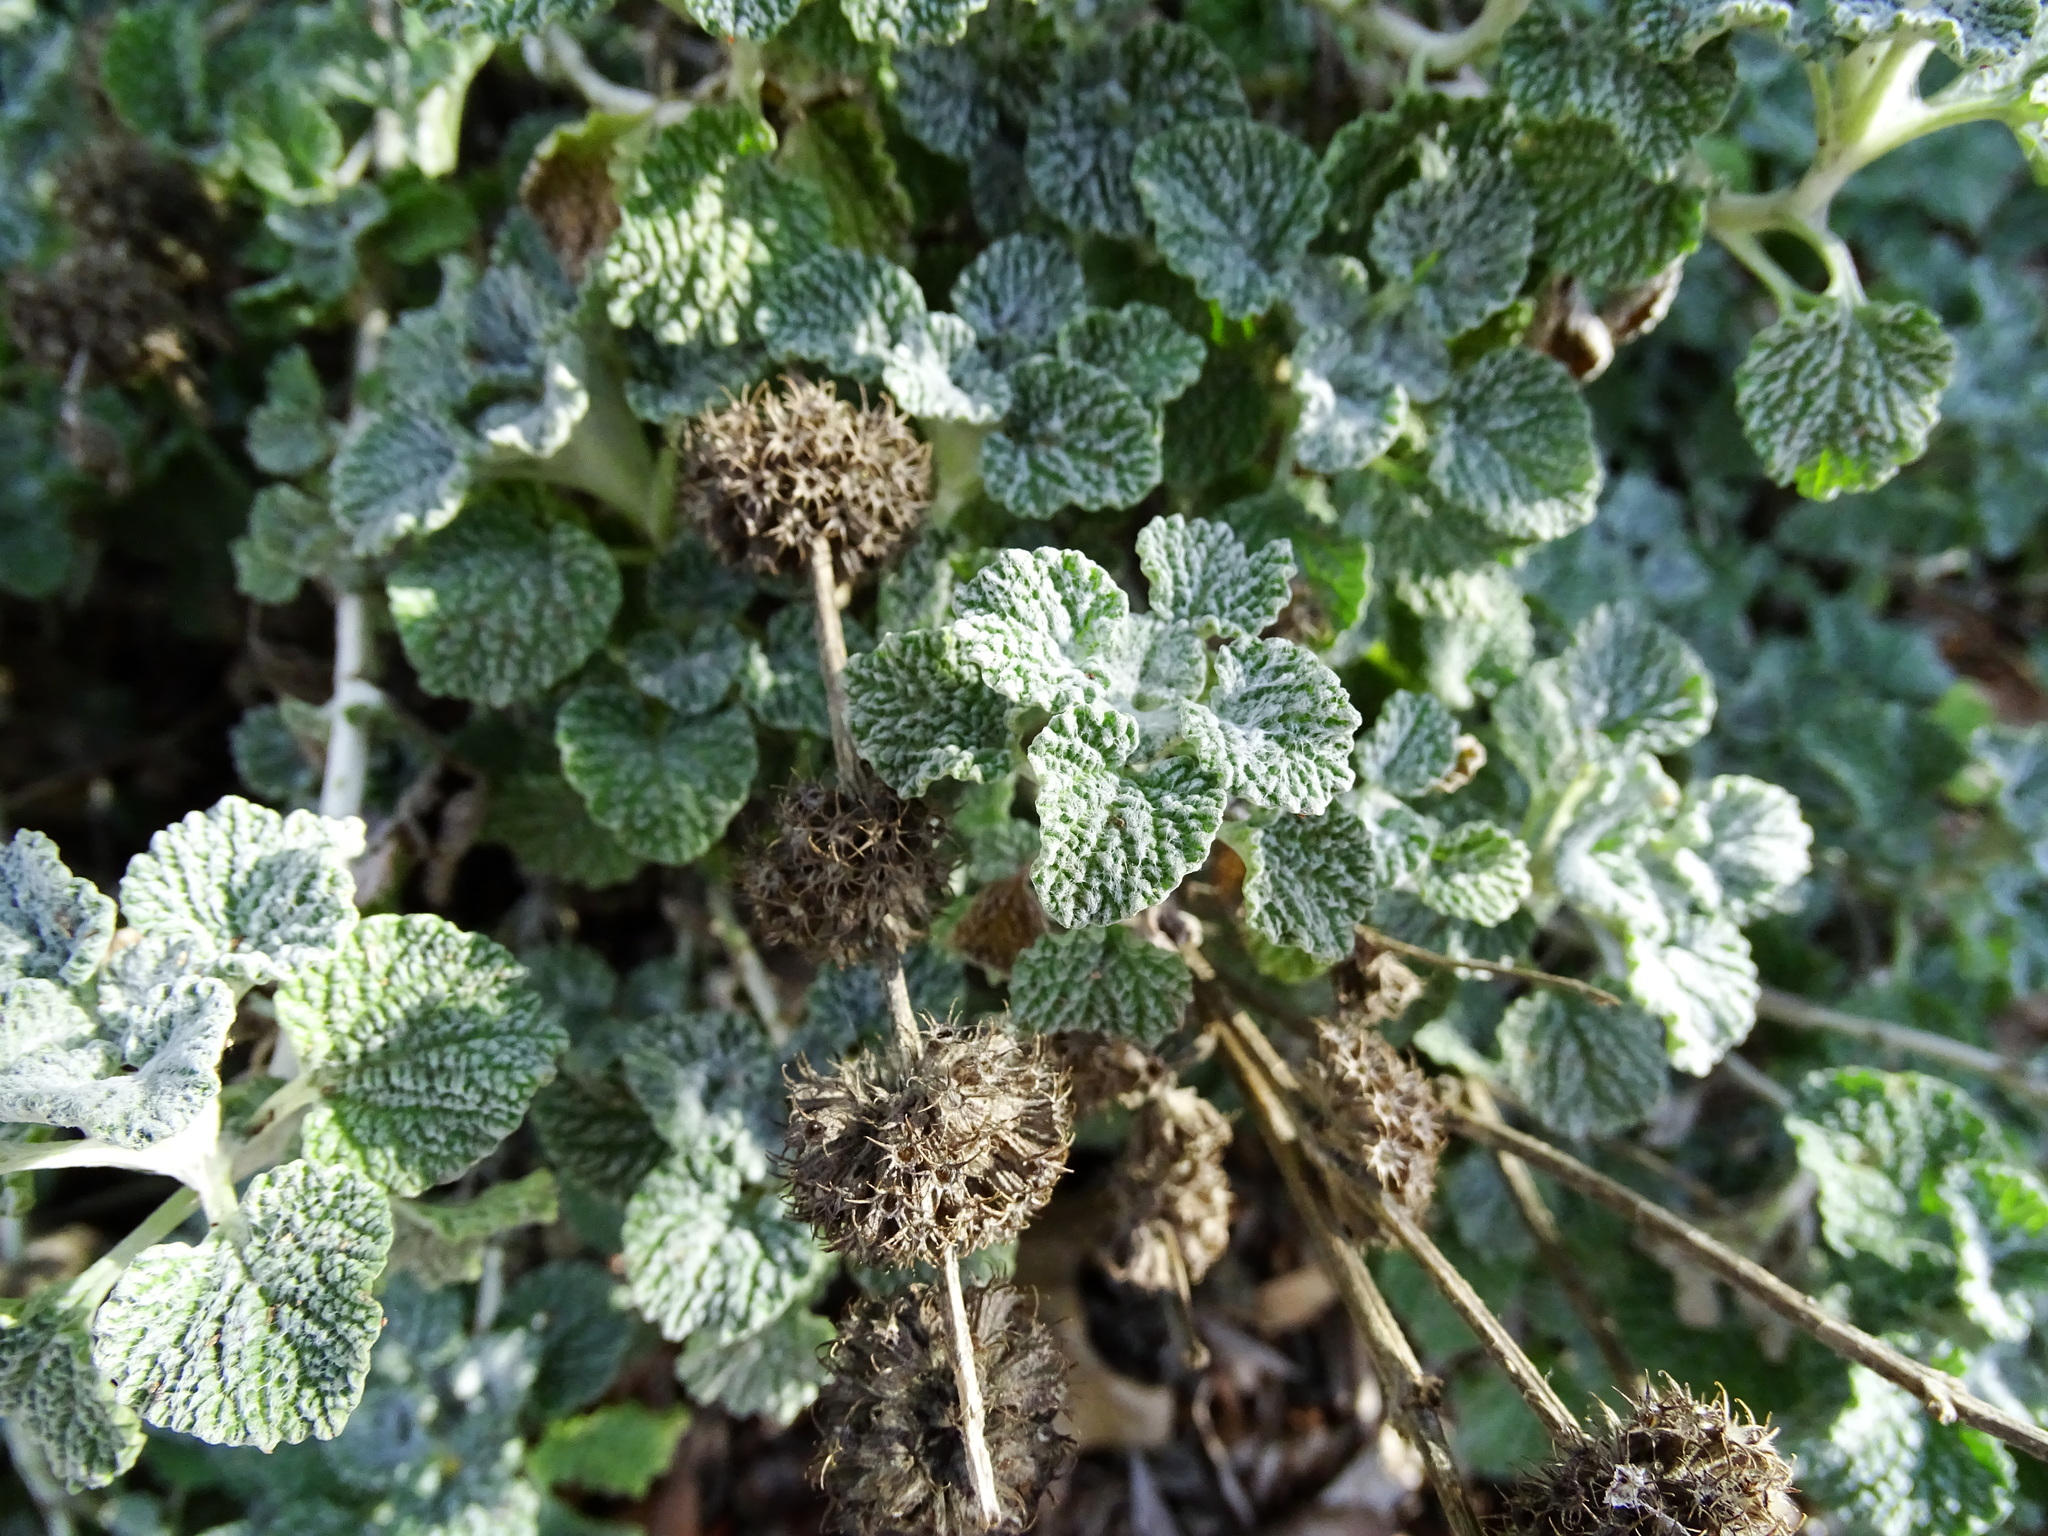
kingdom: Plantae
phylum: Tracheophyta
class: Magnoliopsida
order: Lamiales
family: Lamiaceae
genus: Marrubium
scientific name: Marrubium vulgare
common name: Horehound
